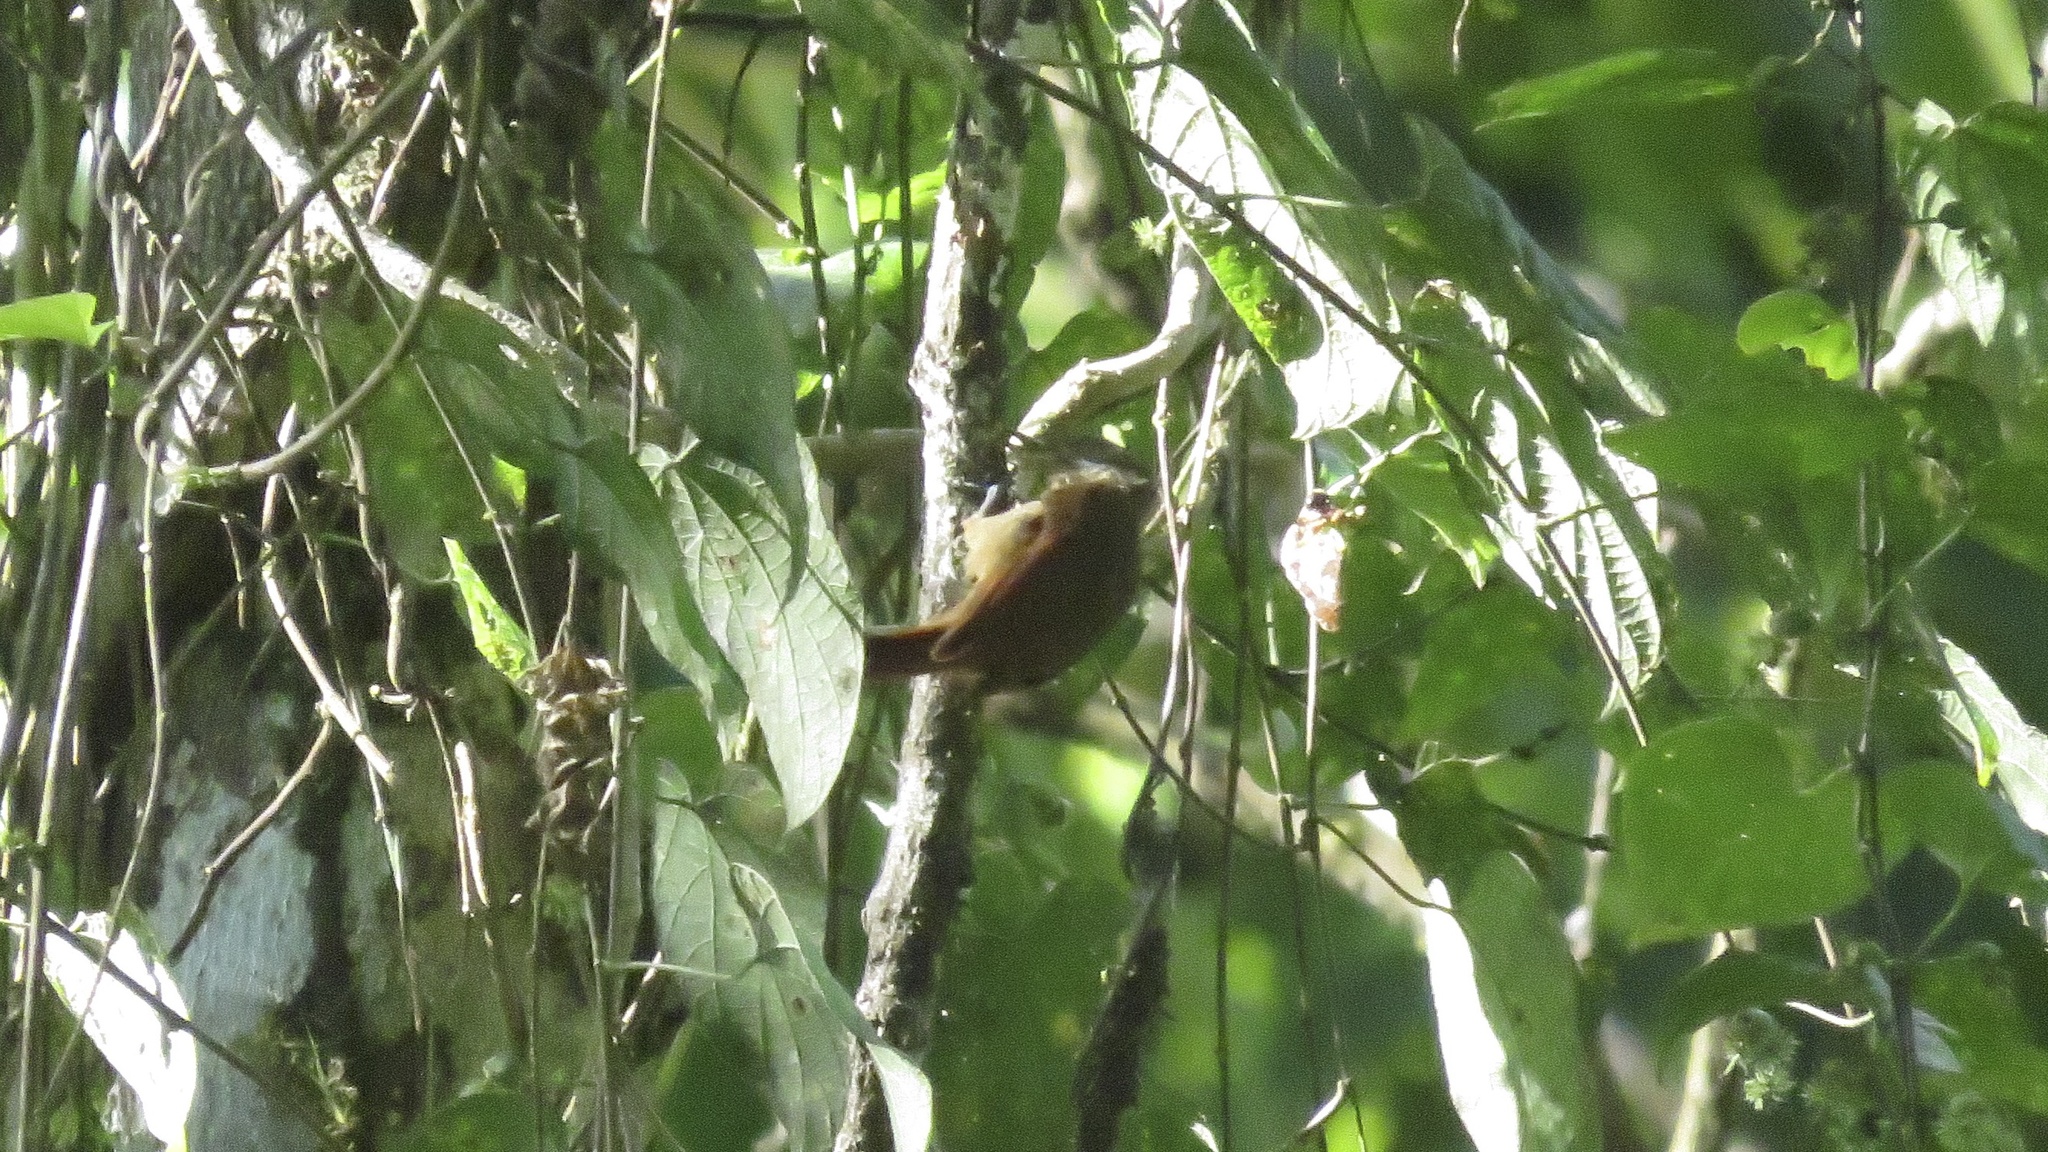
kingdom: Animalia
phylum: Chordata
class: Aves
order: Passeriformes
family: Furnariidae
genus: Xenops
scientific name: Xenops minutus
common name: Plain xenops
